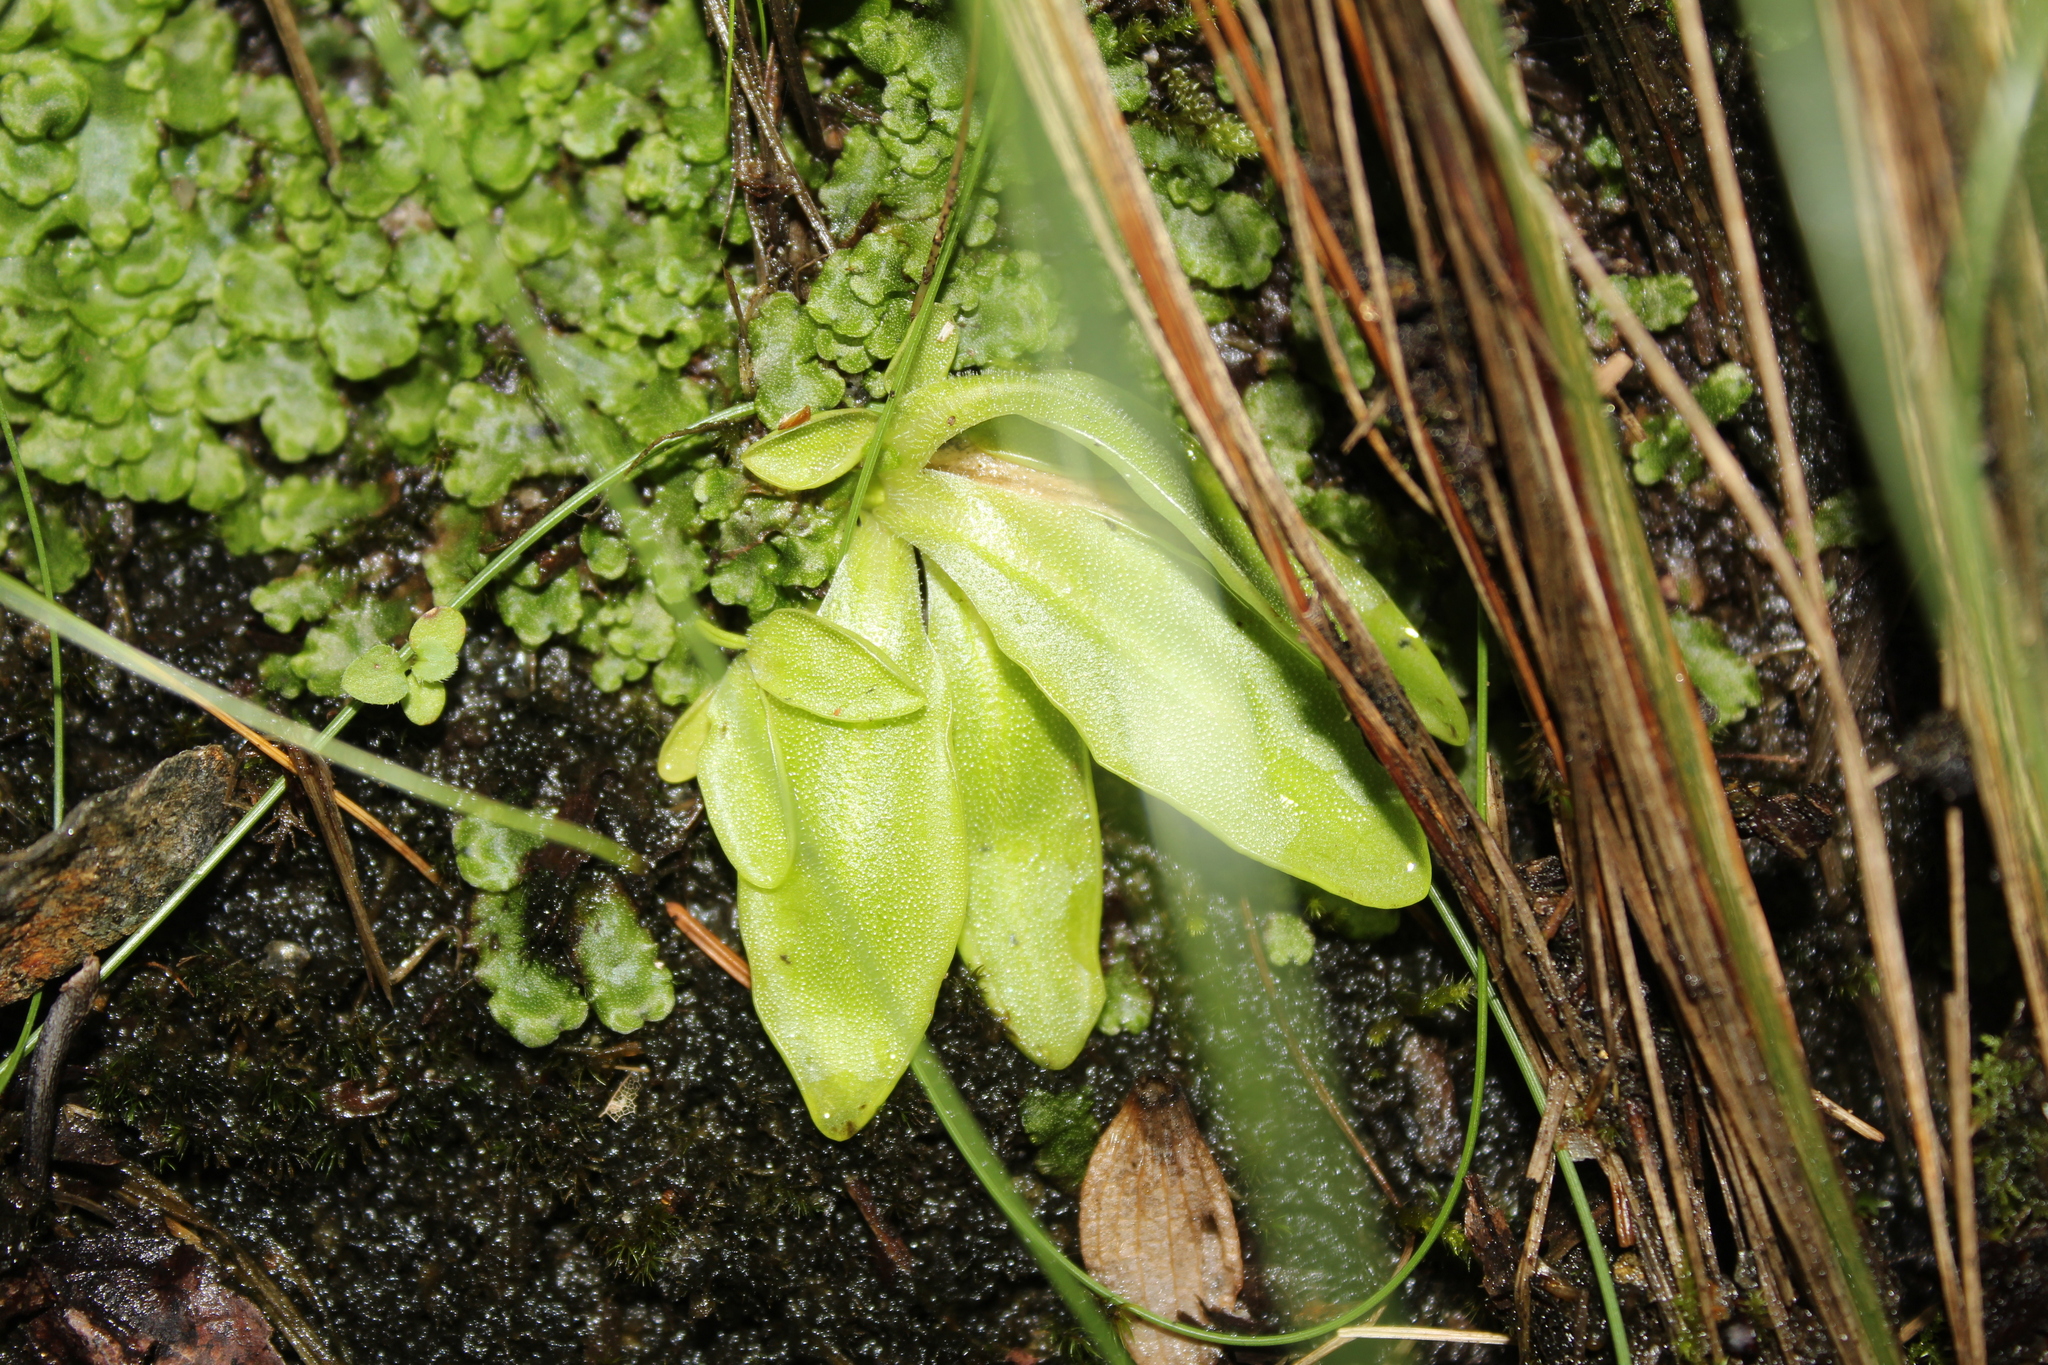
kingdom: Plantae
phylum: Tracheophyta
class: Magnoliopsida
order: Lamiales
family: Lentibulariaceae
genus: Pinguicula
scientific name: Pinguicula vulgaris
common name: Common butterwort
